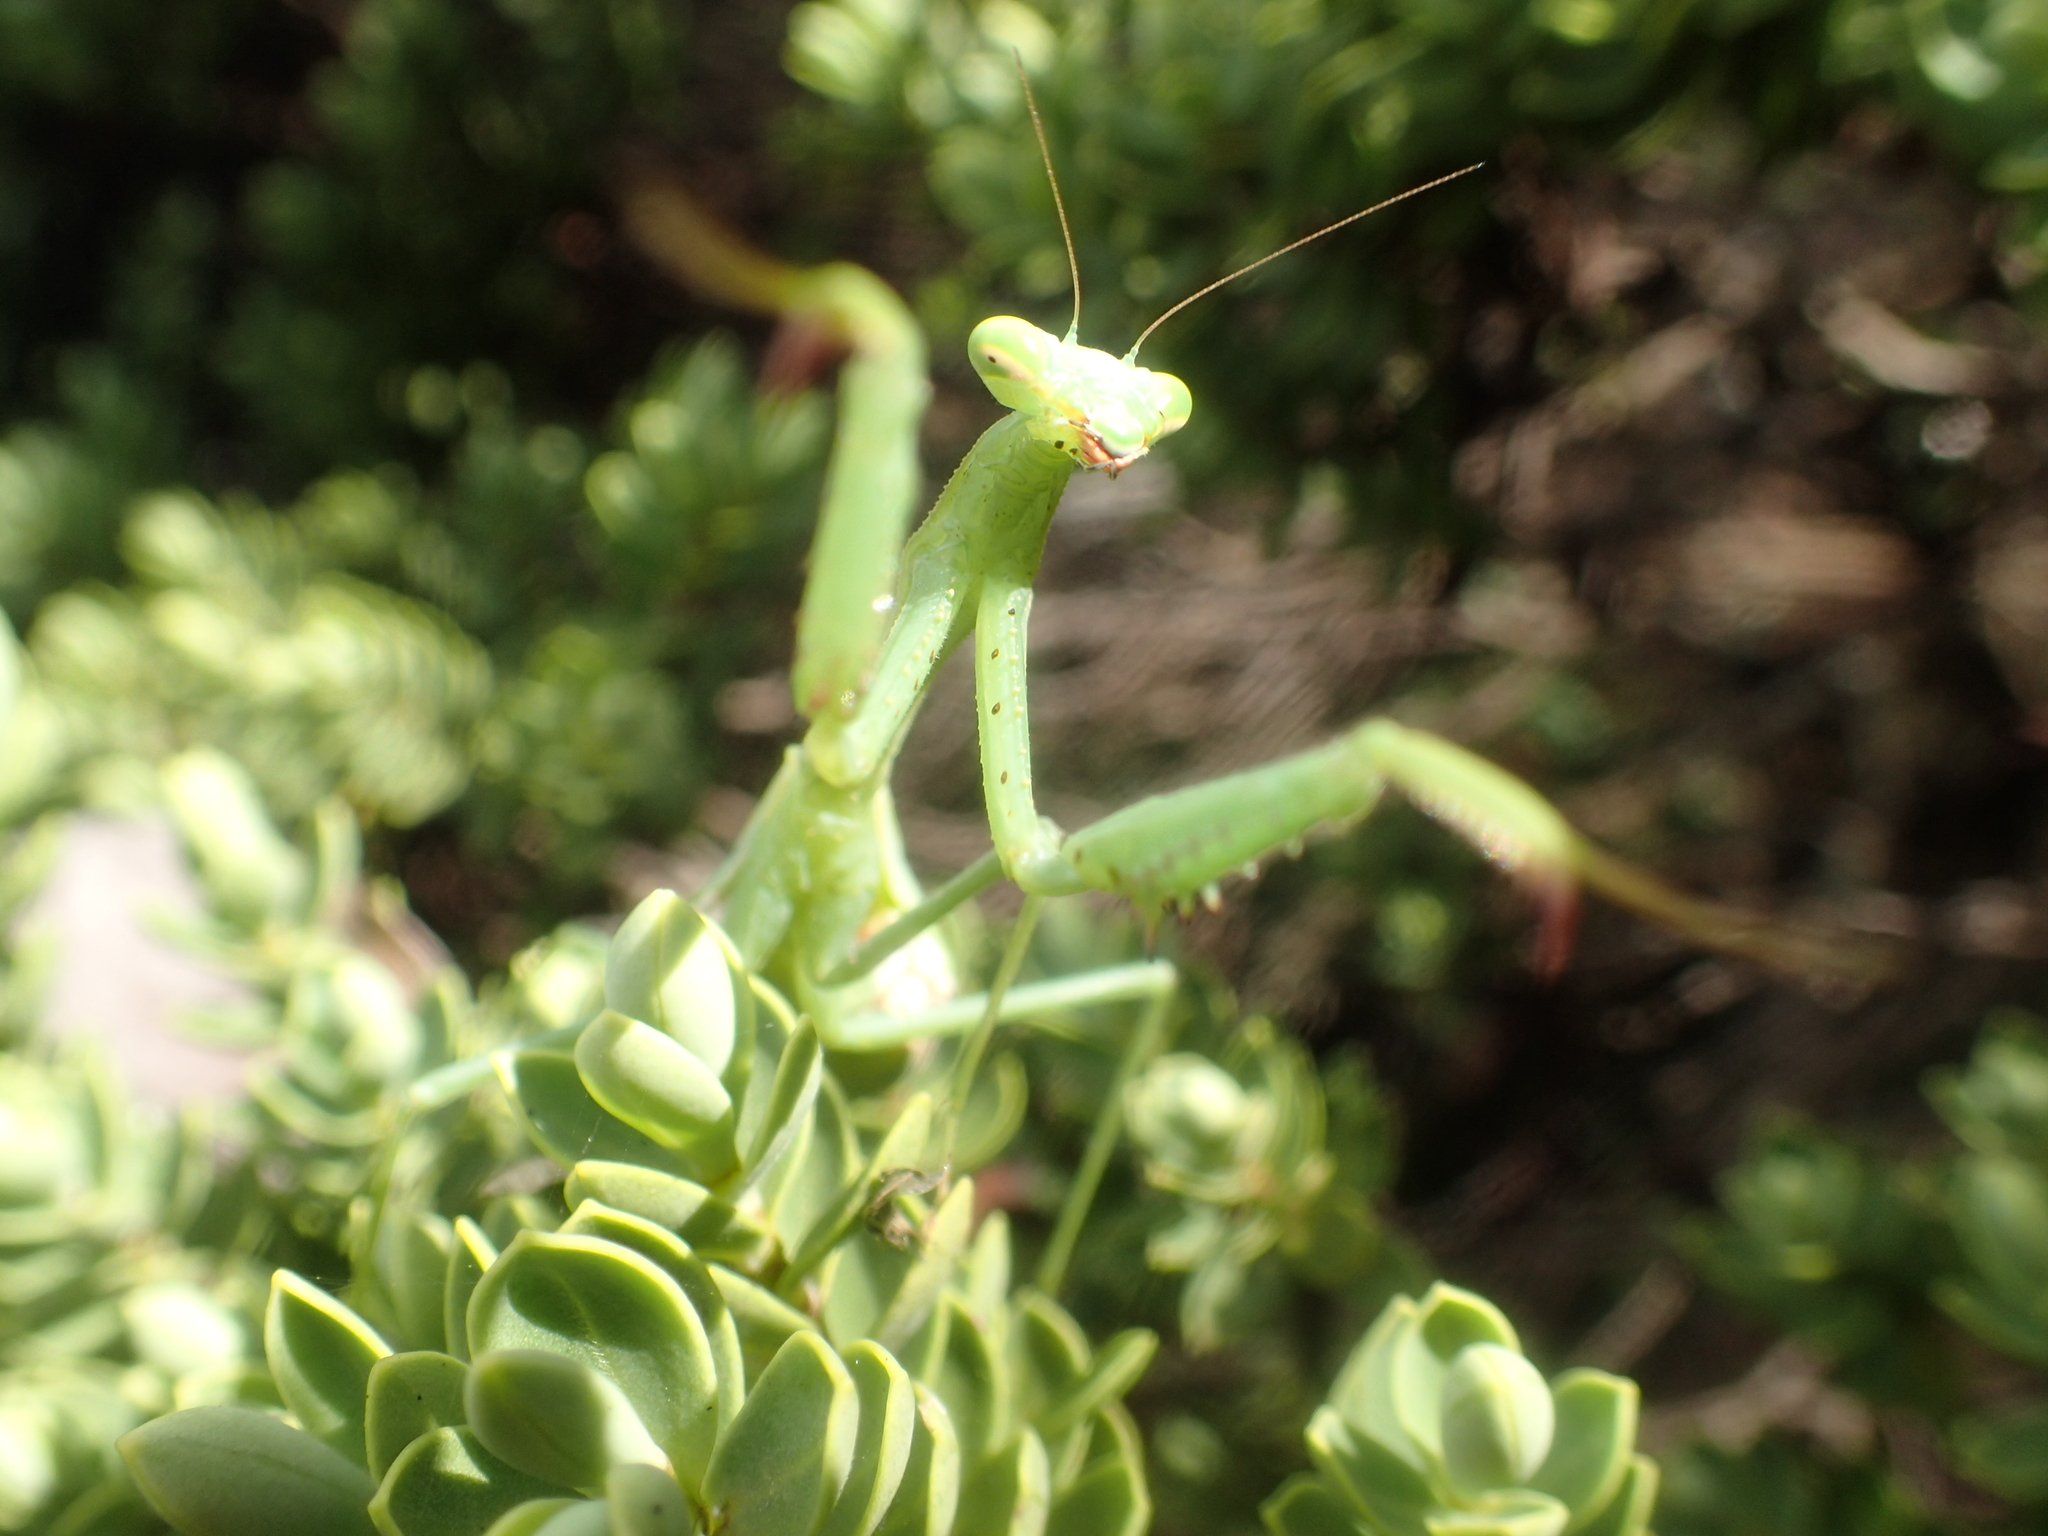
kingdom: Animalia
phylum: Arthropoda
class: Insecta
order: Mantodea
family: Miomantidae
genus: Miomantis
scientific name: Miomantis caffra
